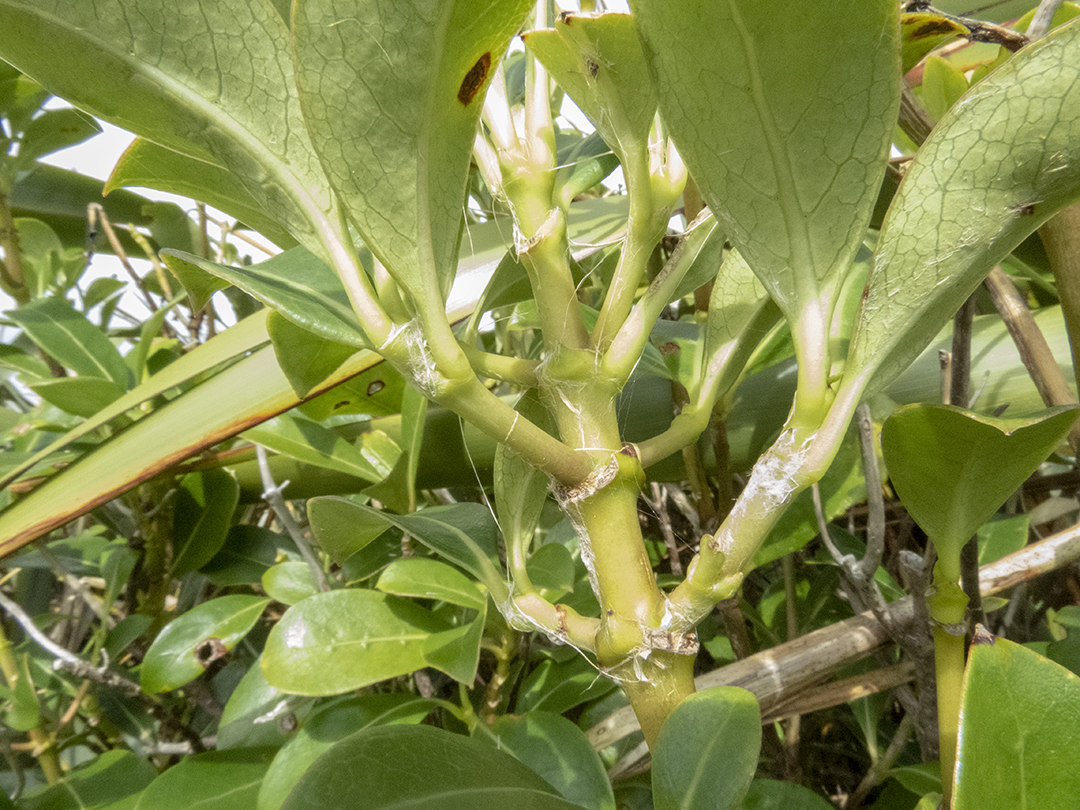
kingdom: Plantae
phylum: Tracheophyta
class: Magnoliopsida
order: Gentianales
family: Rubiaceae
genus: Coprosma
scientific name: Coprosma lucida
